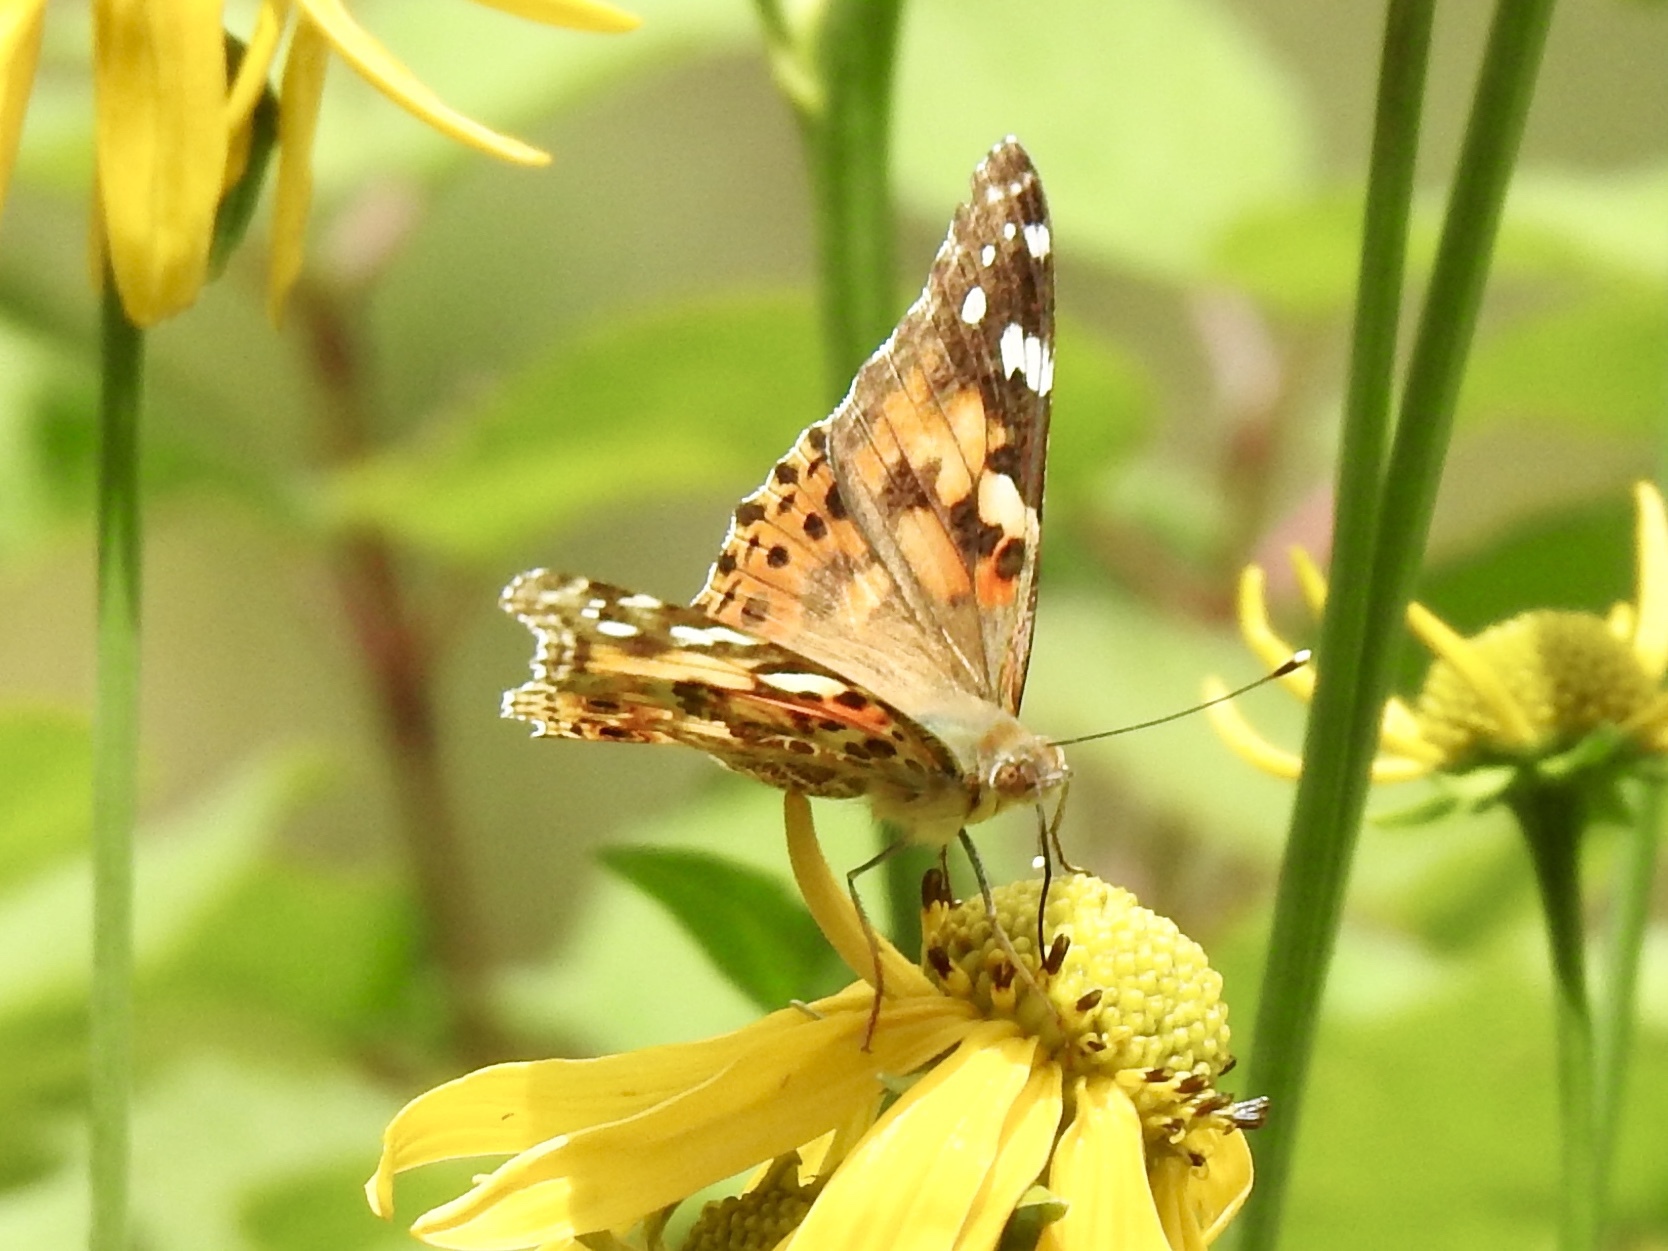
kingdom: Animalia
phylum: Arthropoda
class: Insecta
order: Lepidoptera
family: Nymphalidae
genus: Vanessa
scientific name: Vanessa cardui
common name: Painted lady
